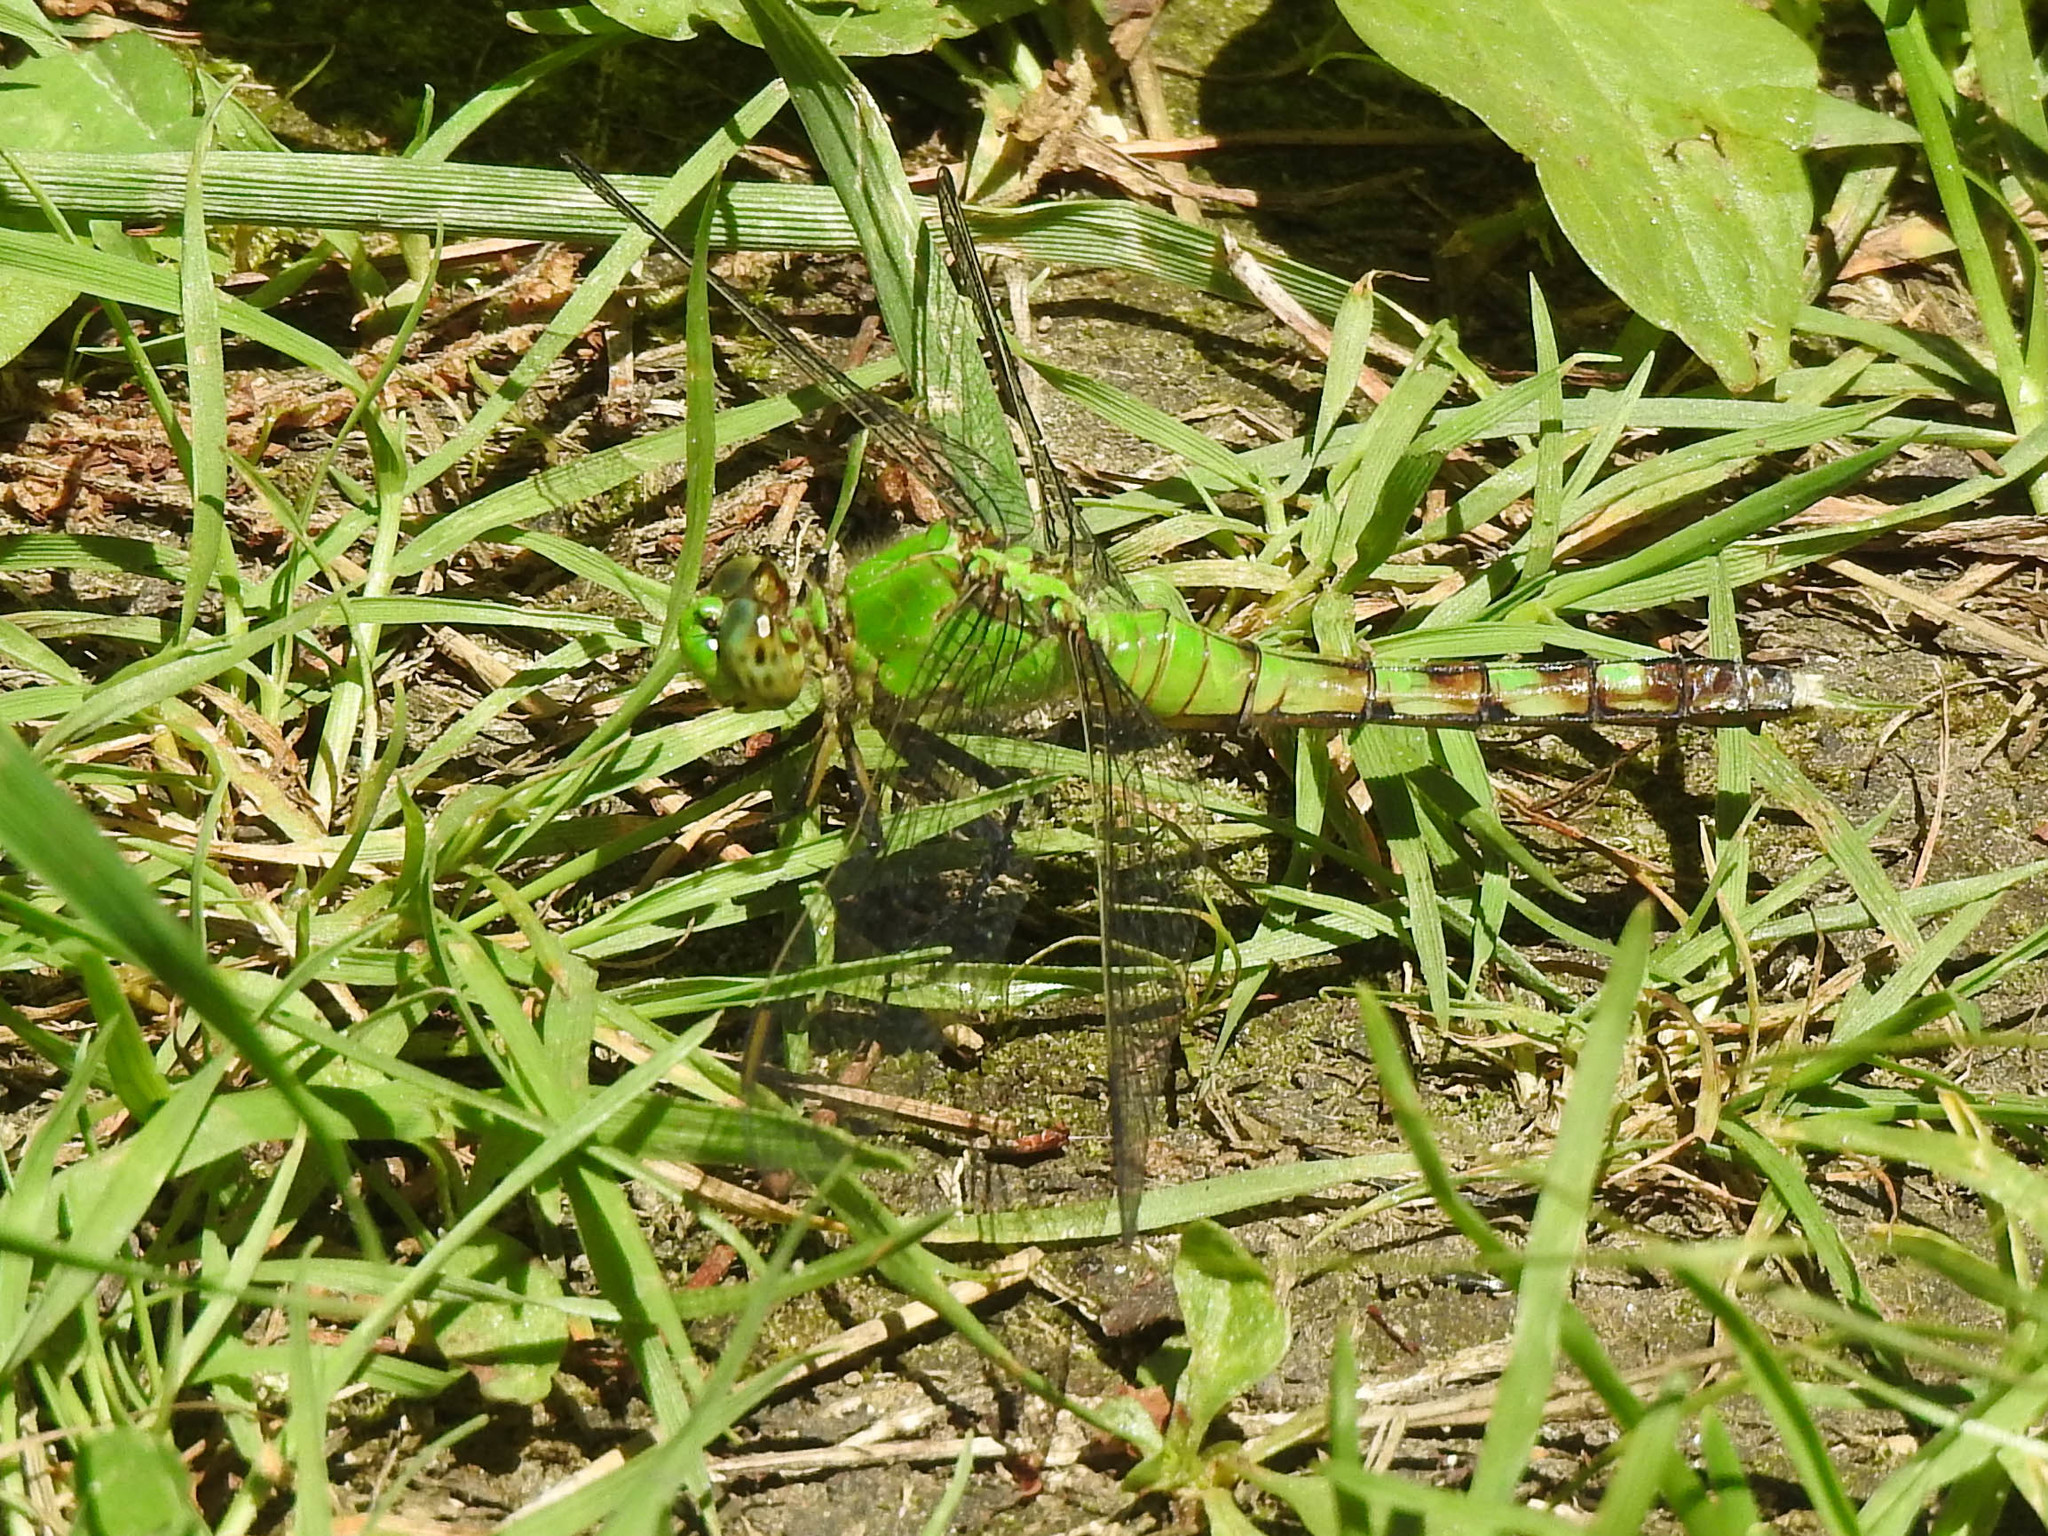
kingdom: Animalia
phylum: Arthropoda
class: Insecta
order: Odonata
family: Libellulidae
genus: Erythemis
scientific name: Erythemis simplicicollis
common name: Eastern pondhawk
